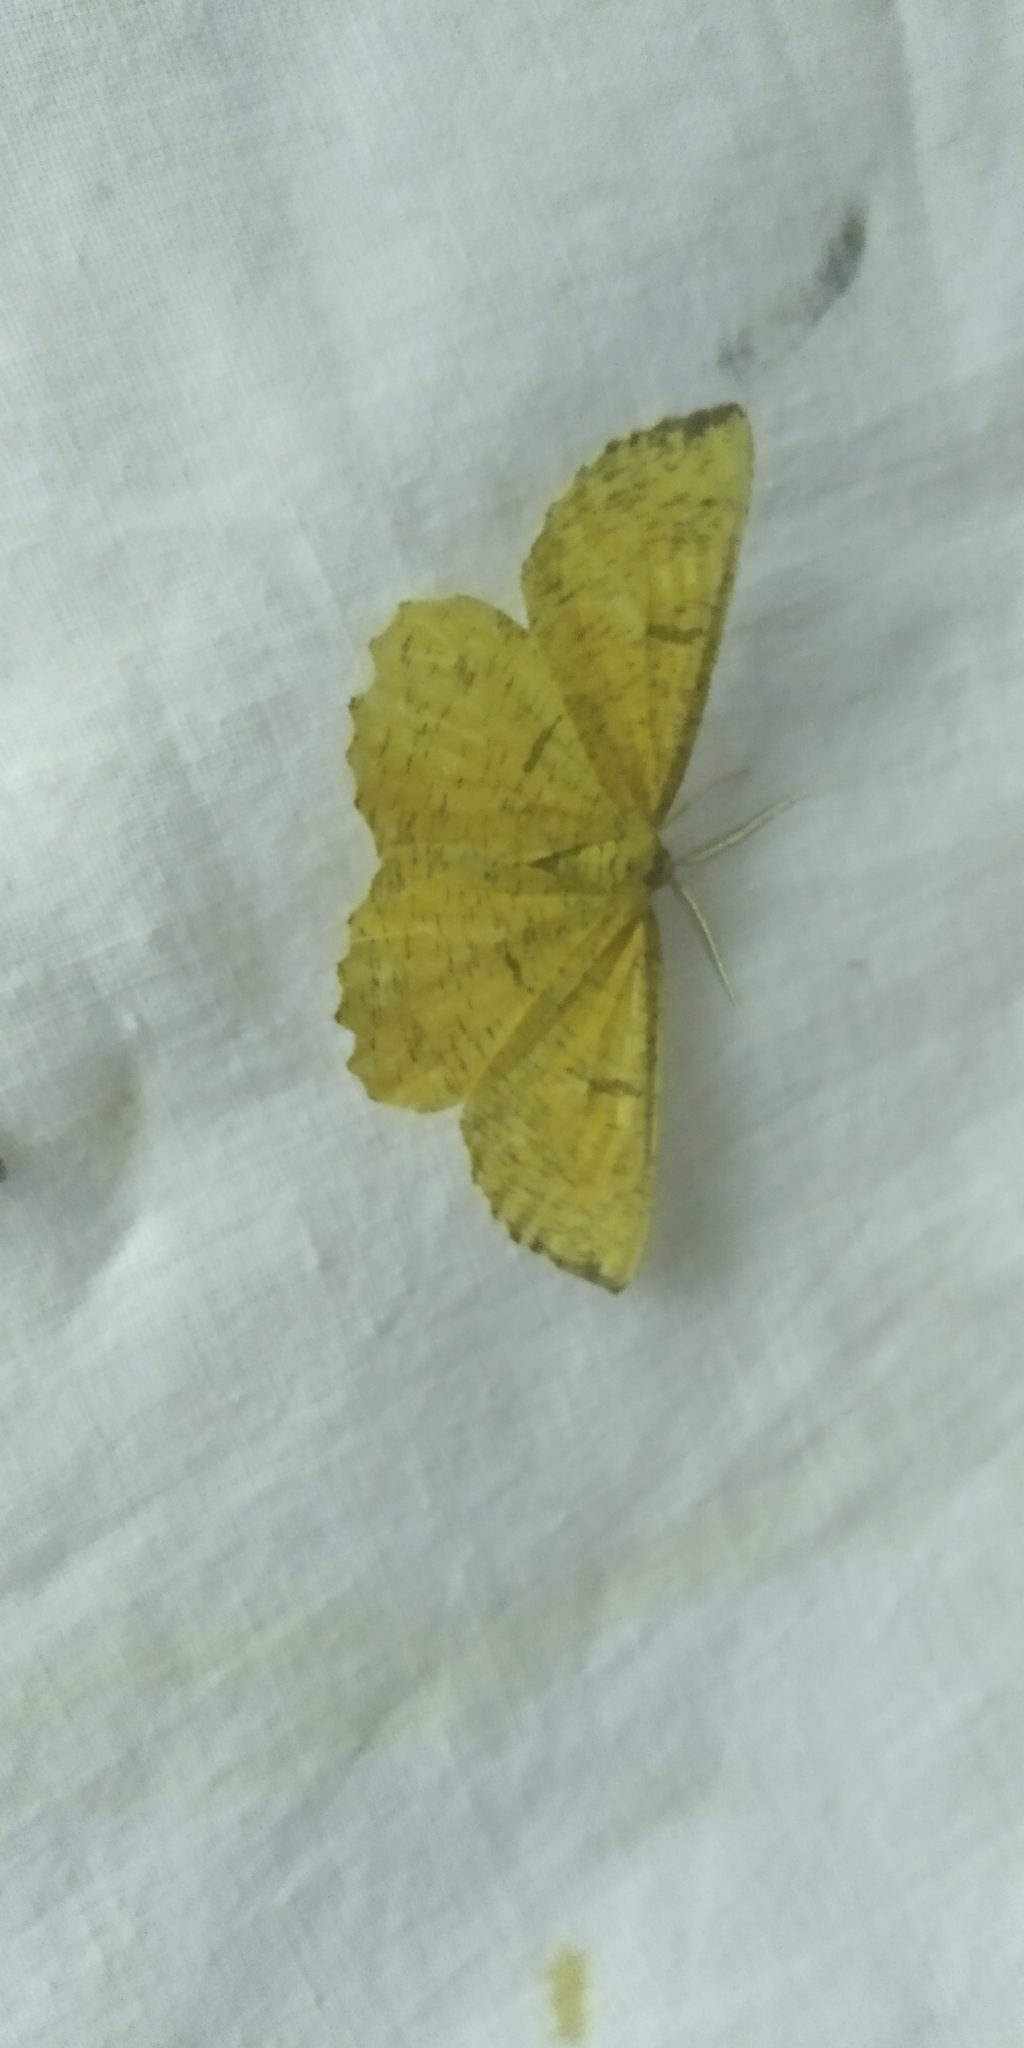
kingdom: Animalia
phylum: Arthropoda
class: Insecta
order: Lepidoptera
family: Geometridae
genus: Angerona
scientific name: Angerona prunaria
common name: Orange moth
